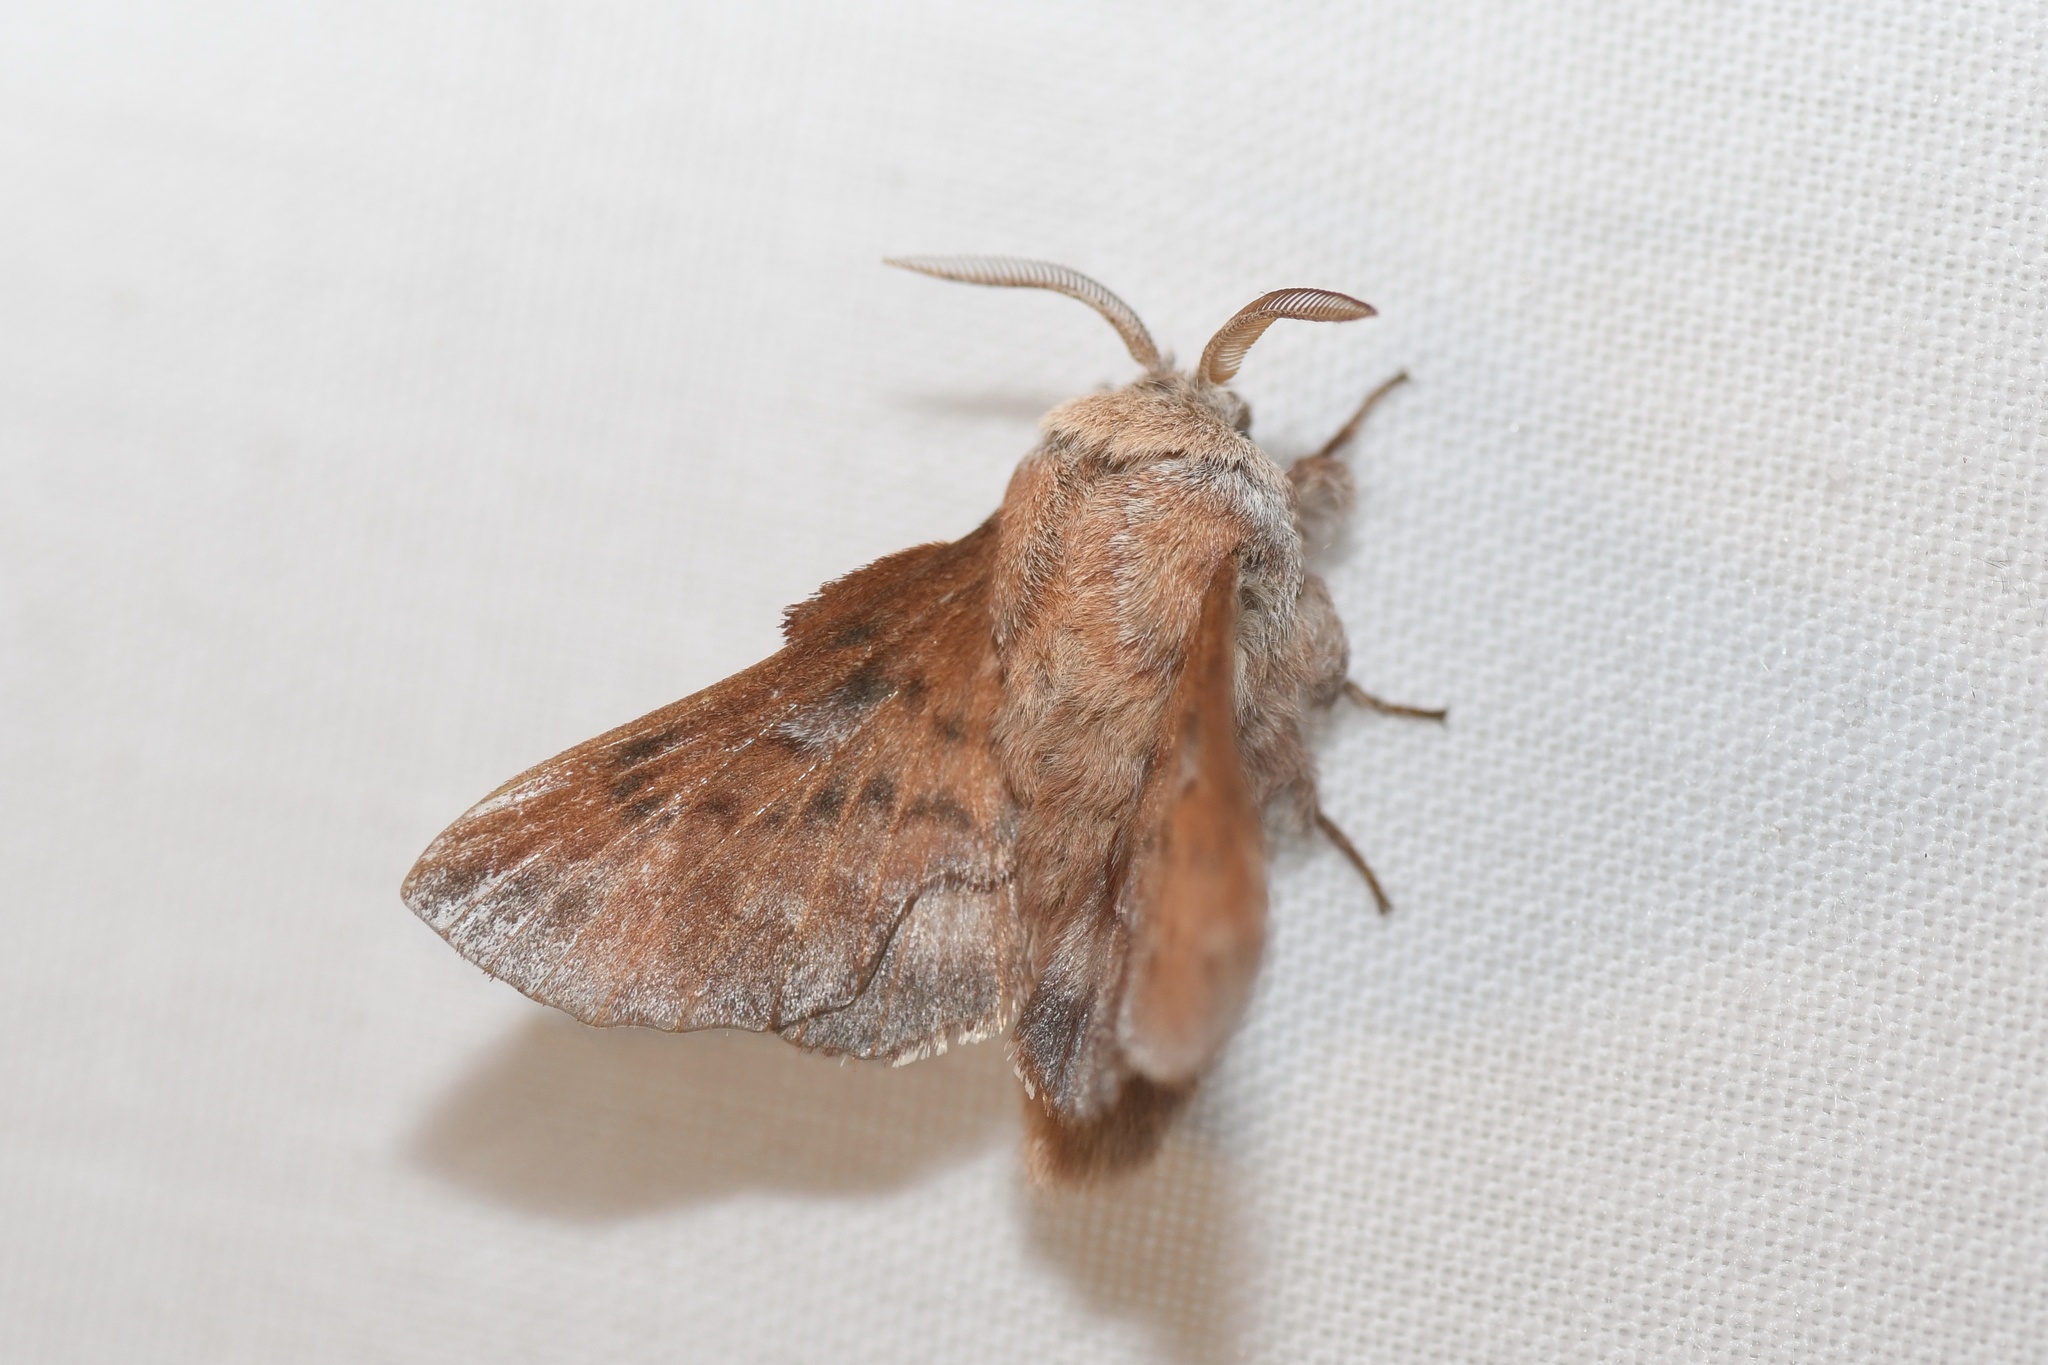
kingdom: Animalia
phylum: Arthropoda
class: Insecta
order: Lepidoptera
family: Lasiocampidae
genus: Phyllodesma
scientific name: Phyllodesma americana
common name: American lappet moth
